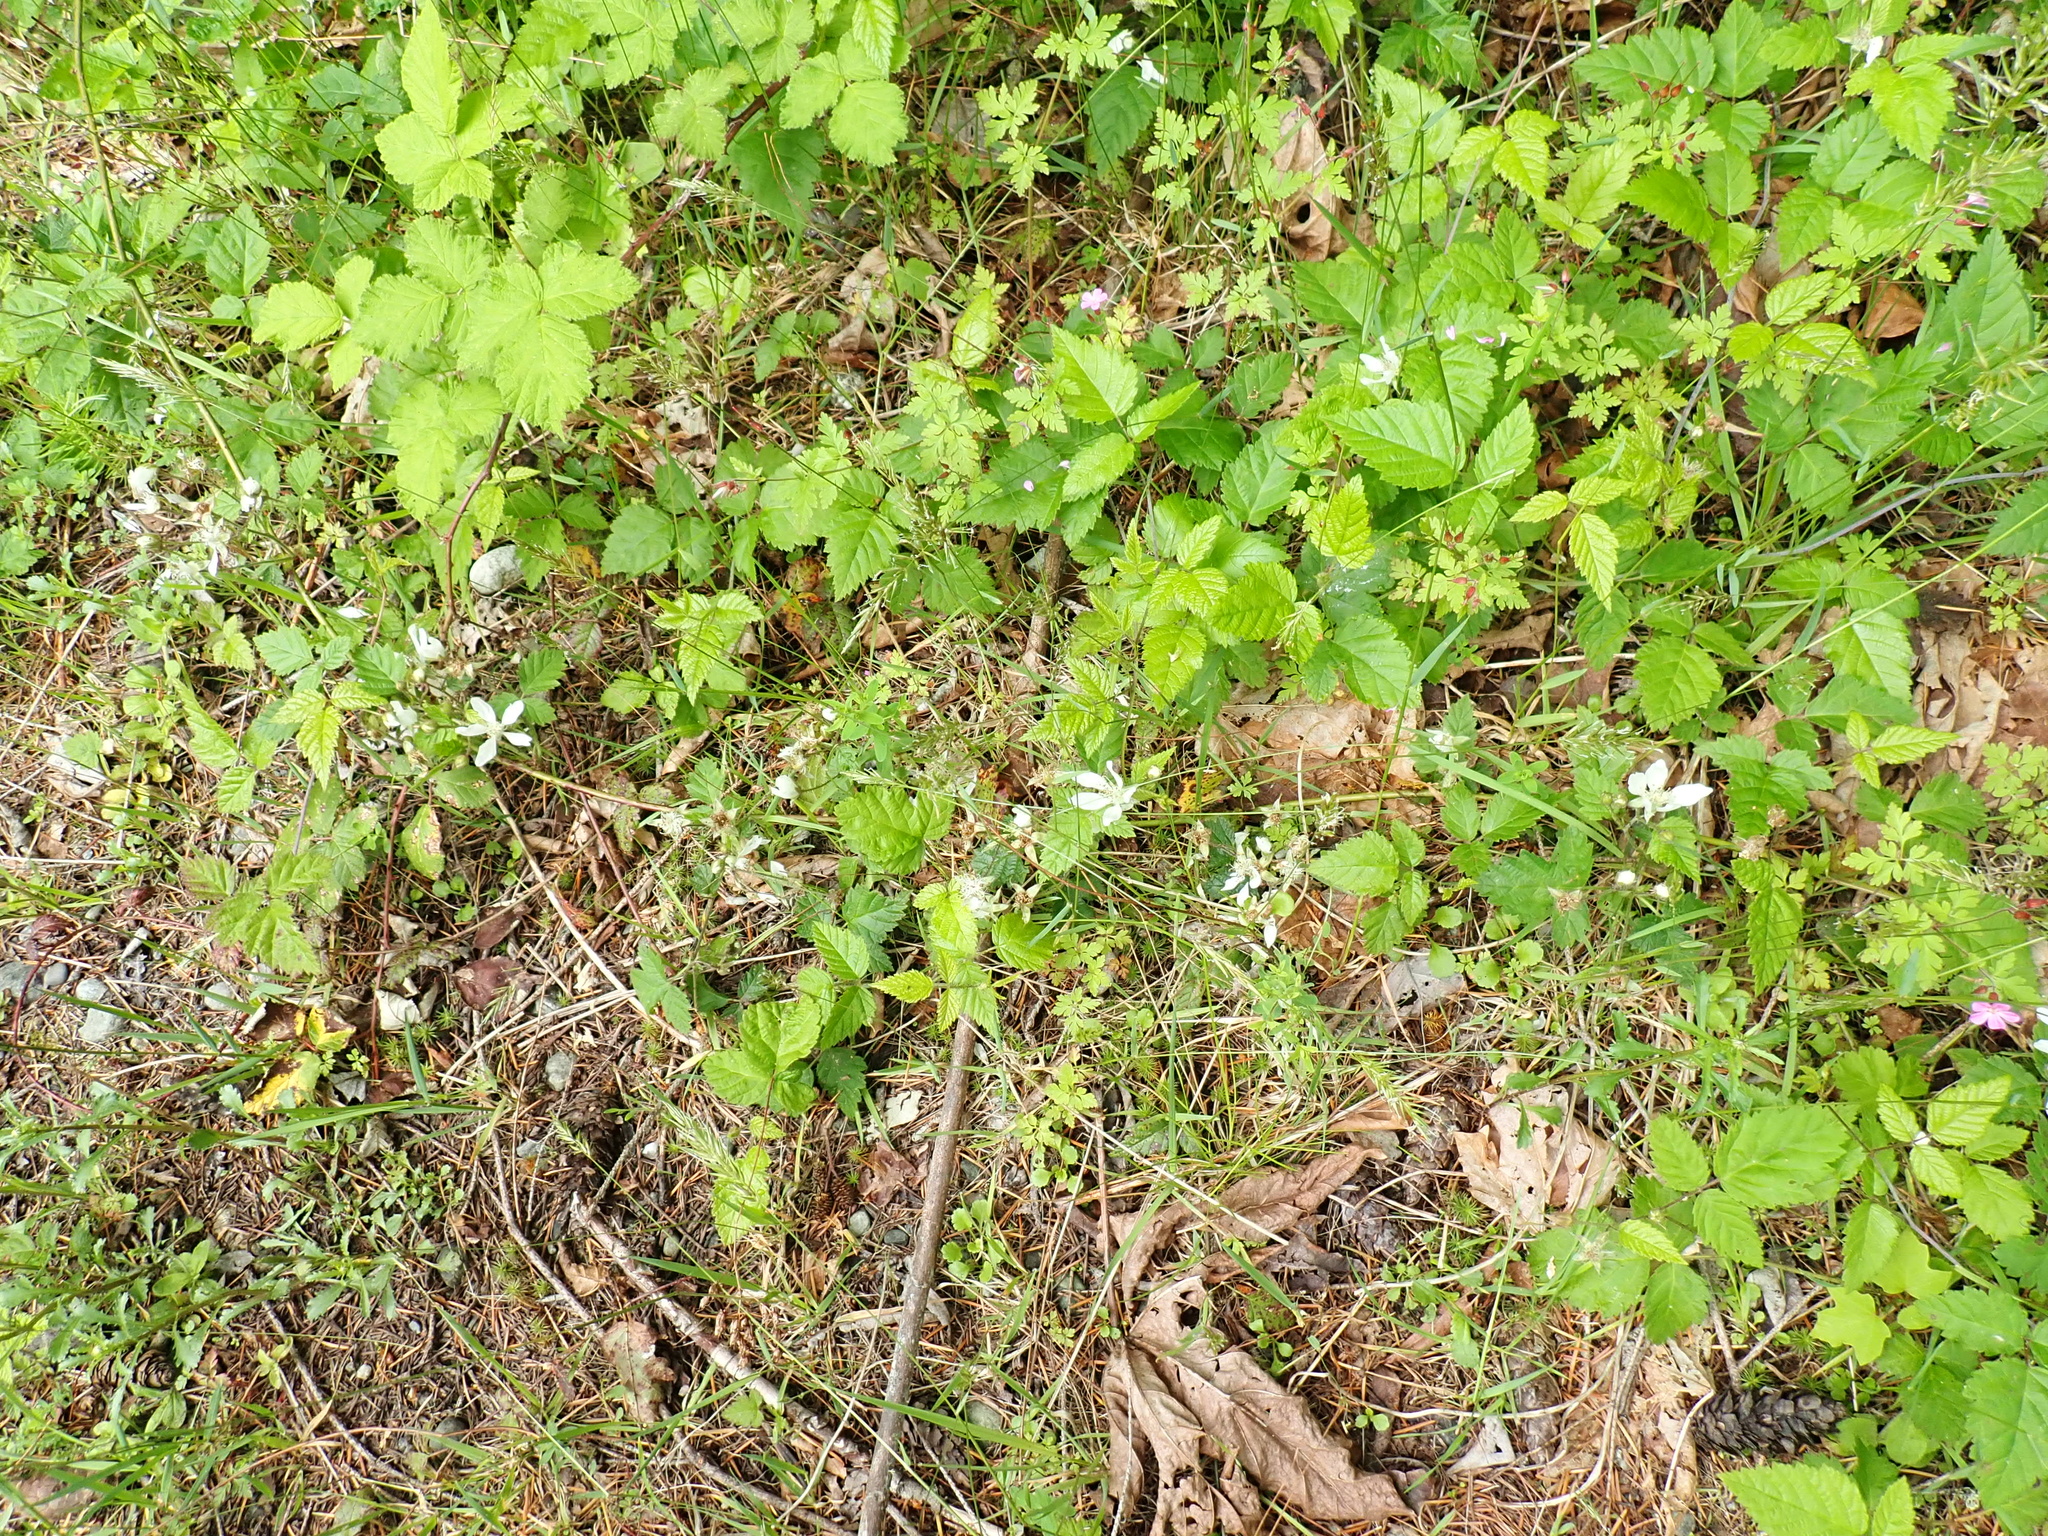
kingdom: Plantae
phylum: Tracheophyta
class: Magnoliopsida
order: Rosales
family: Rosaceae
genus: Rubus
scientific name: Rubus ursinus
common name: Pacific blackberry
